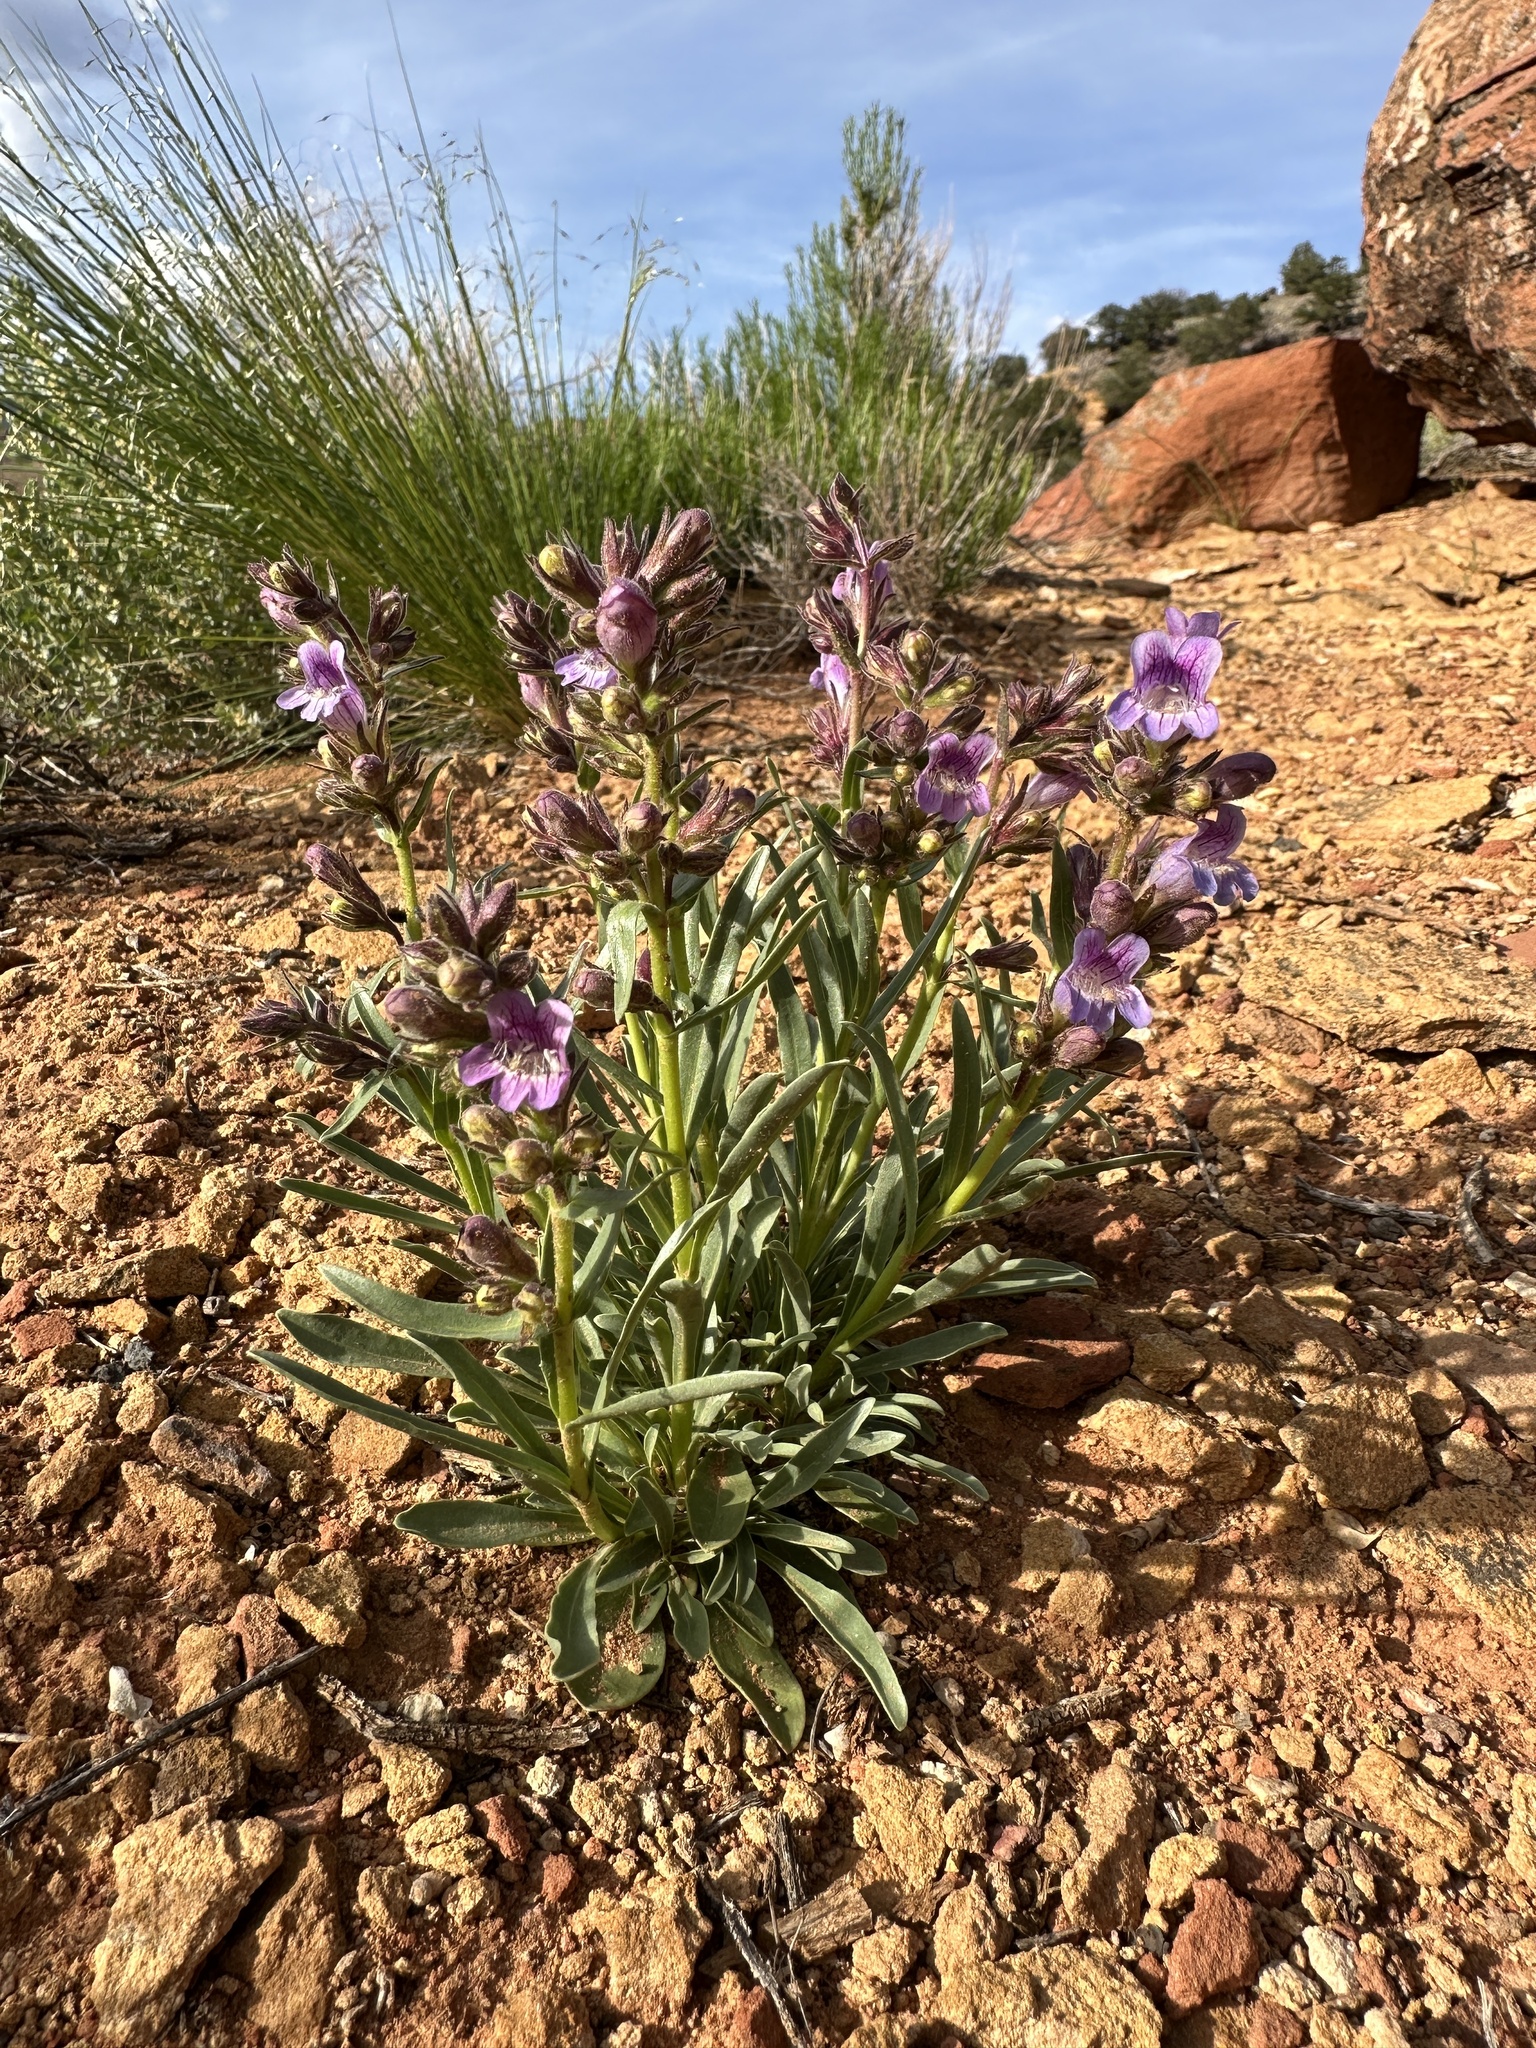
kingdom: Plantae
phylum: Tracheophyta
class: Magnoliopsida
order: Lamiales
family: Plantaginaceae
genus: Penstemon
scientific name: Penstemon ophianthus
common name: Arizona beardtongue
